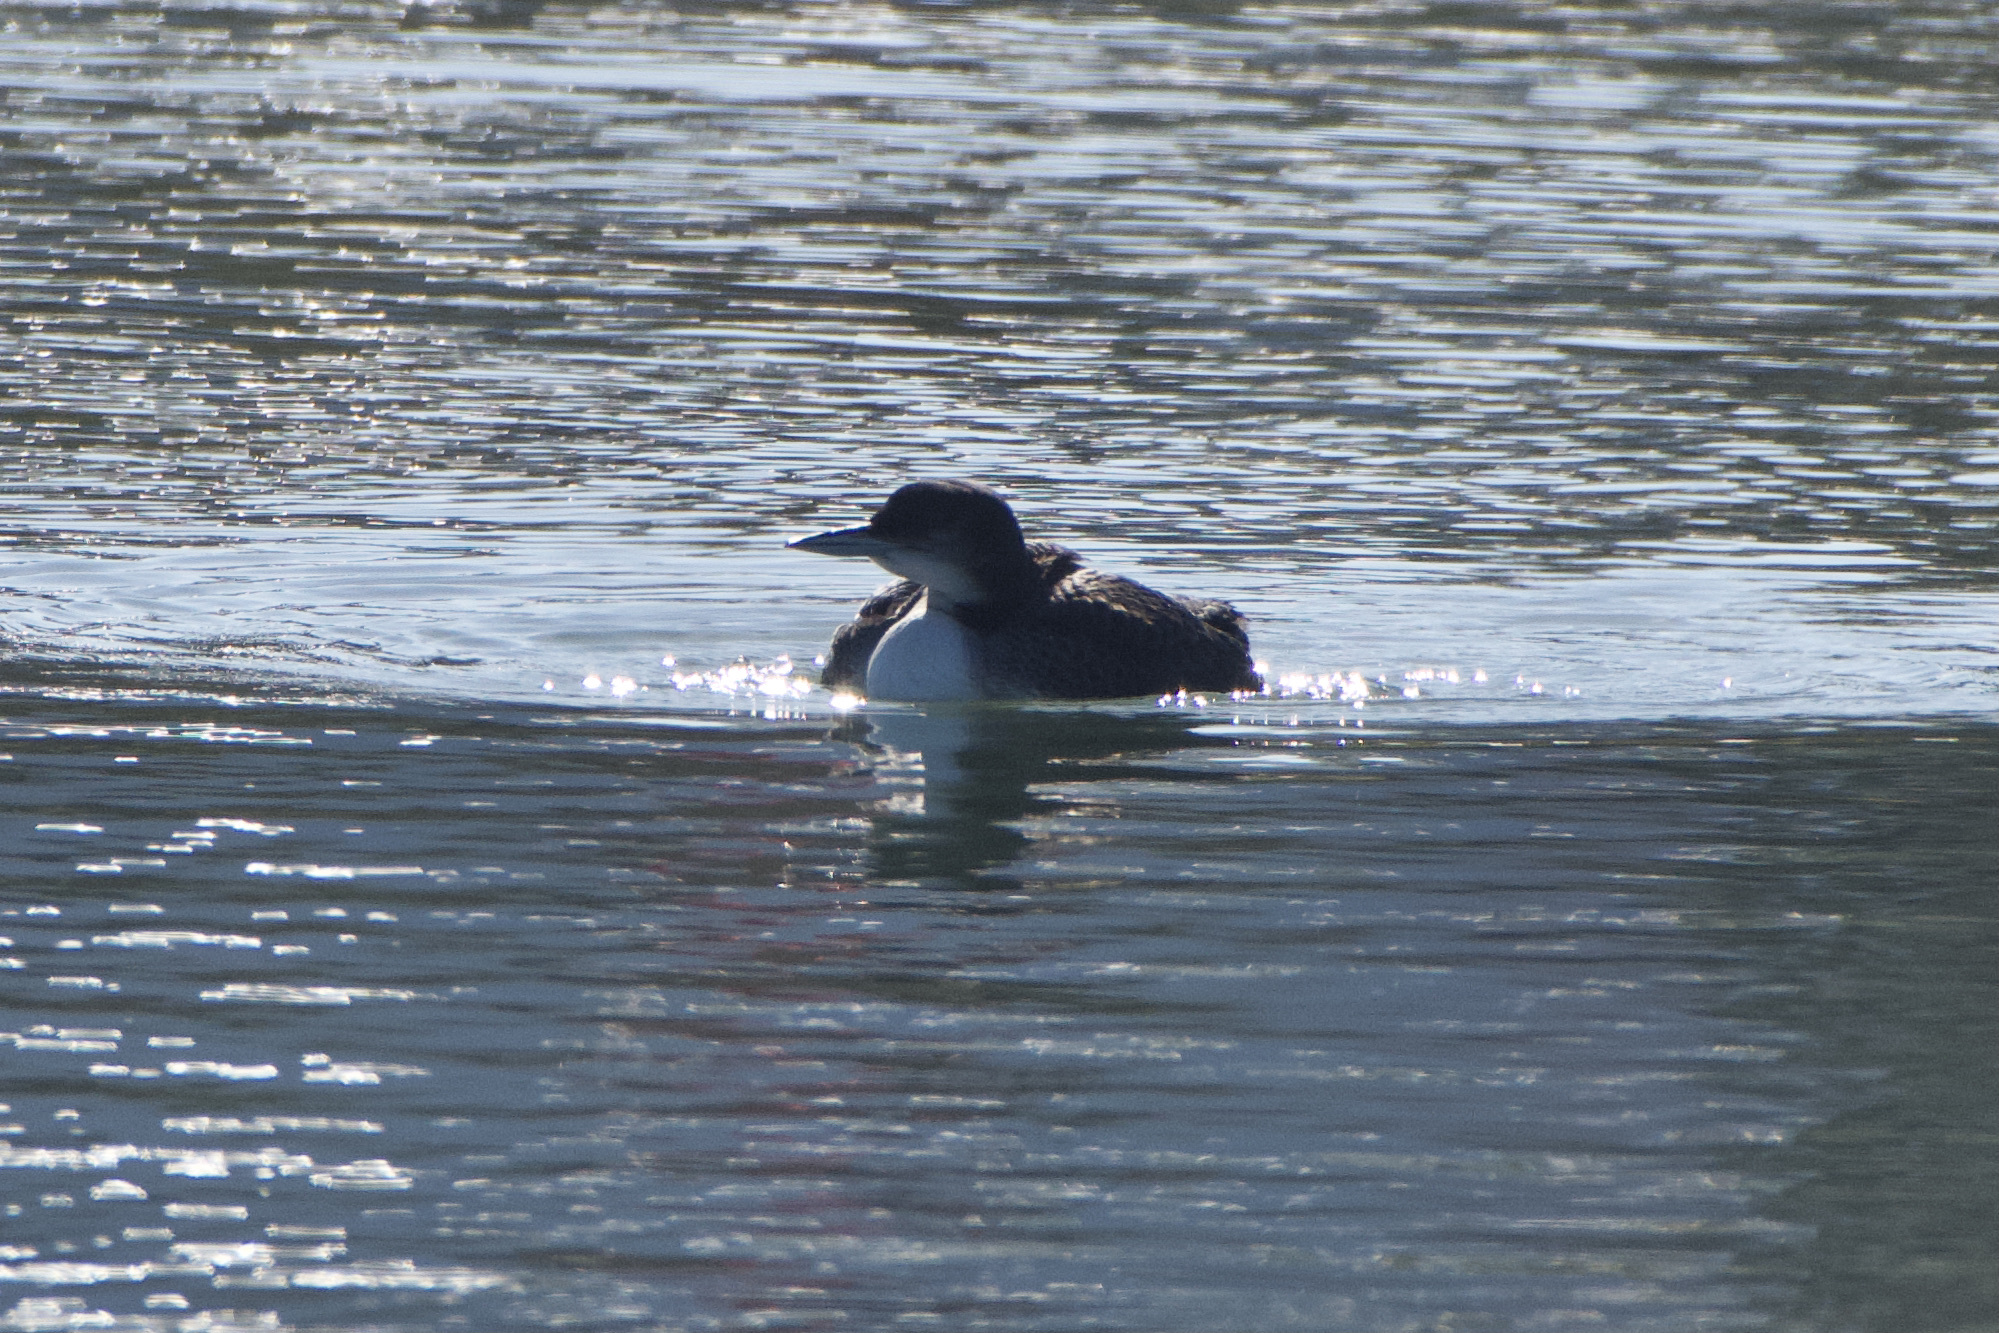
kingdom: Animalia
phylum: Chordata
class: Aves
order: Gaviiformes
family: Gaviidae
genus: Gavia
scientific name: Gavia immer
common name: Common loon
